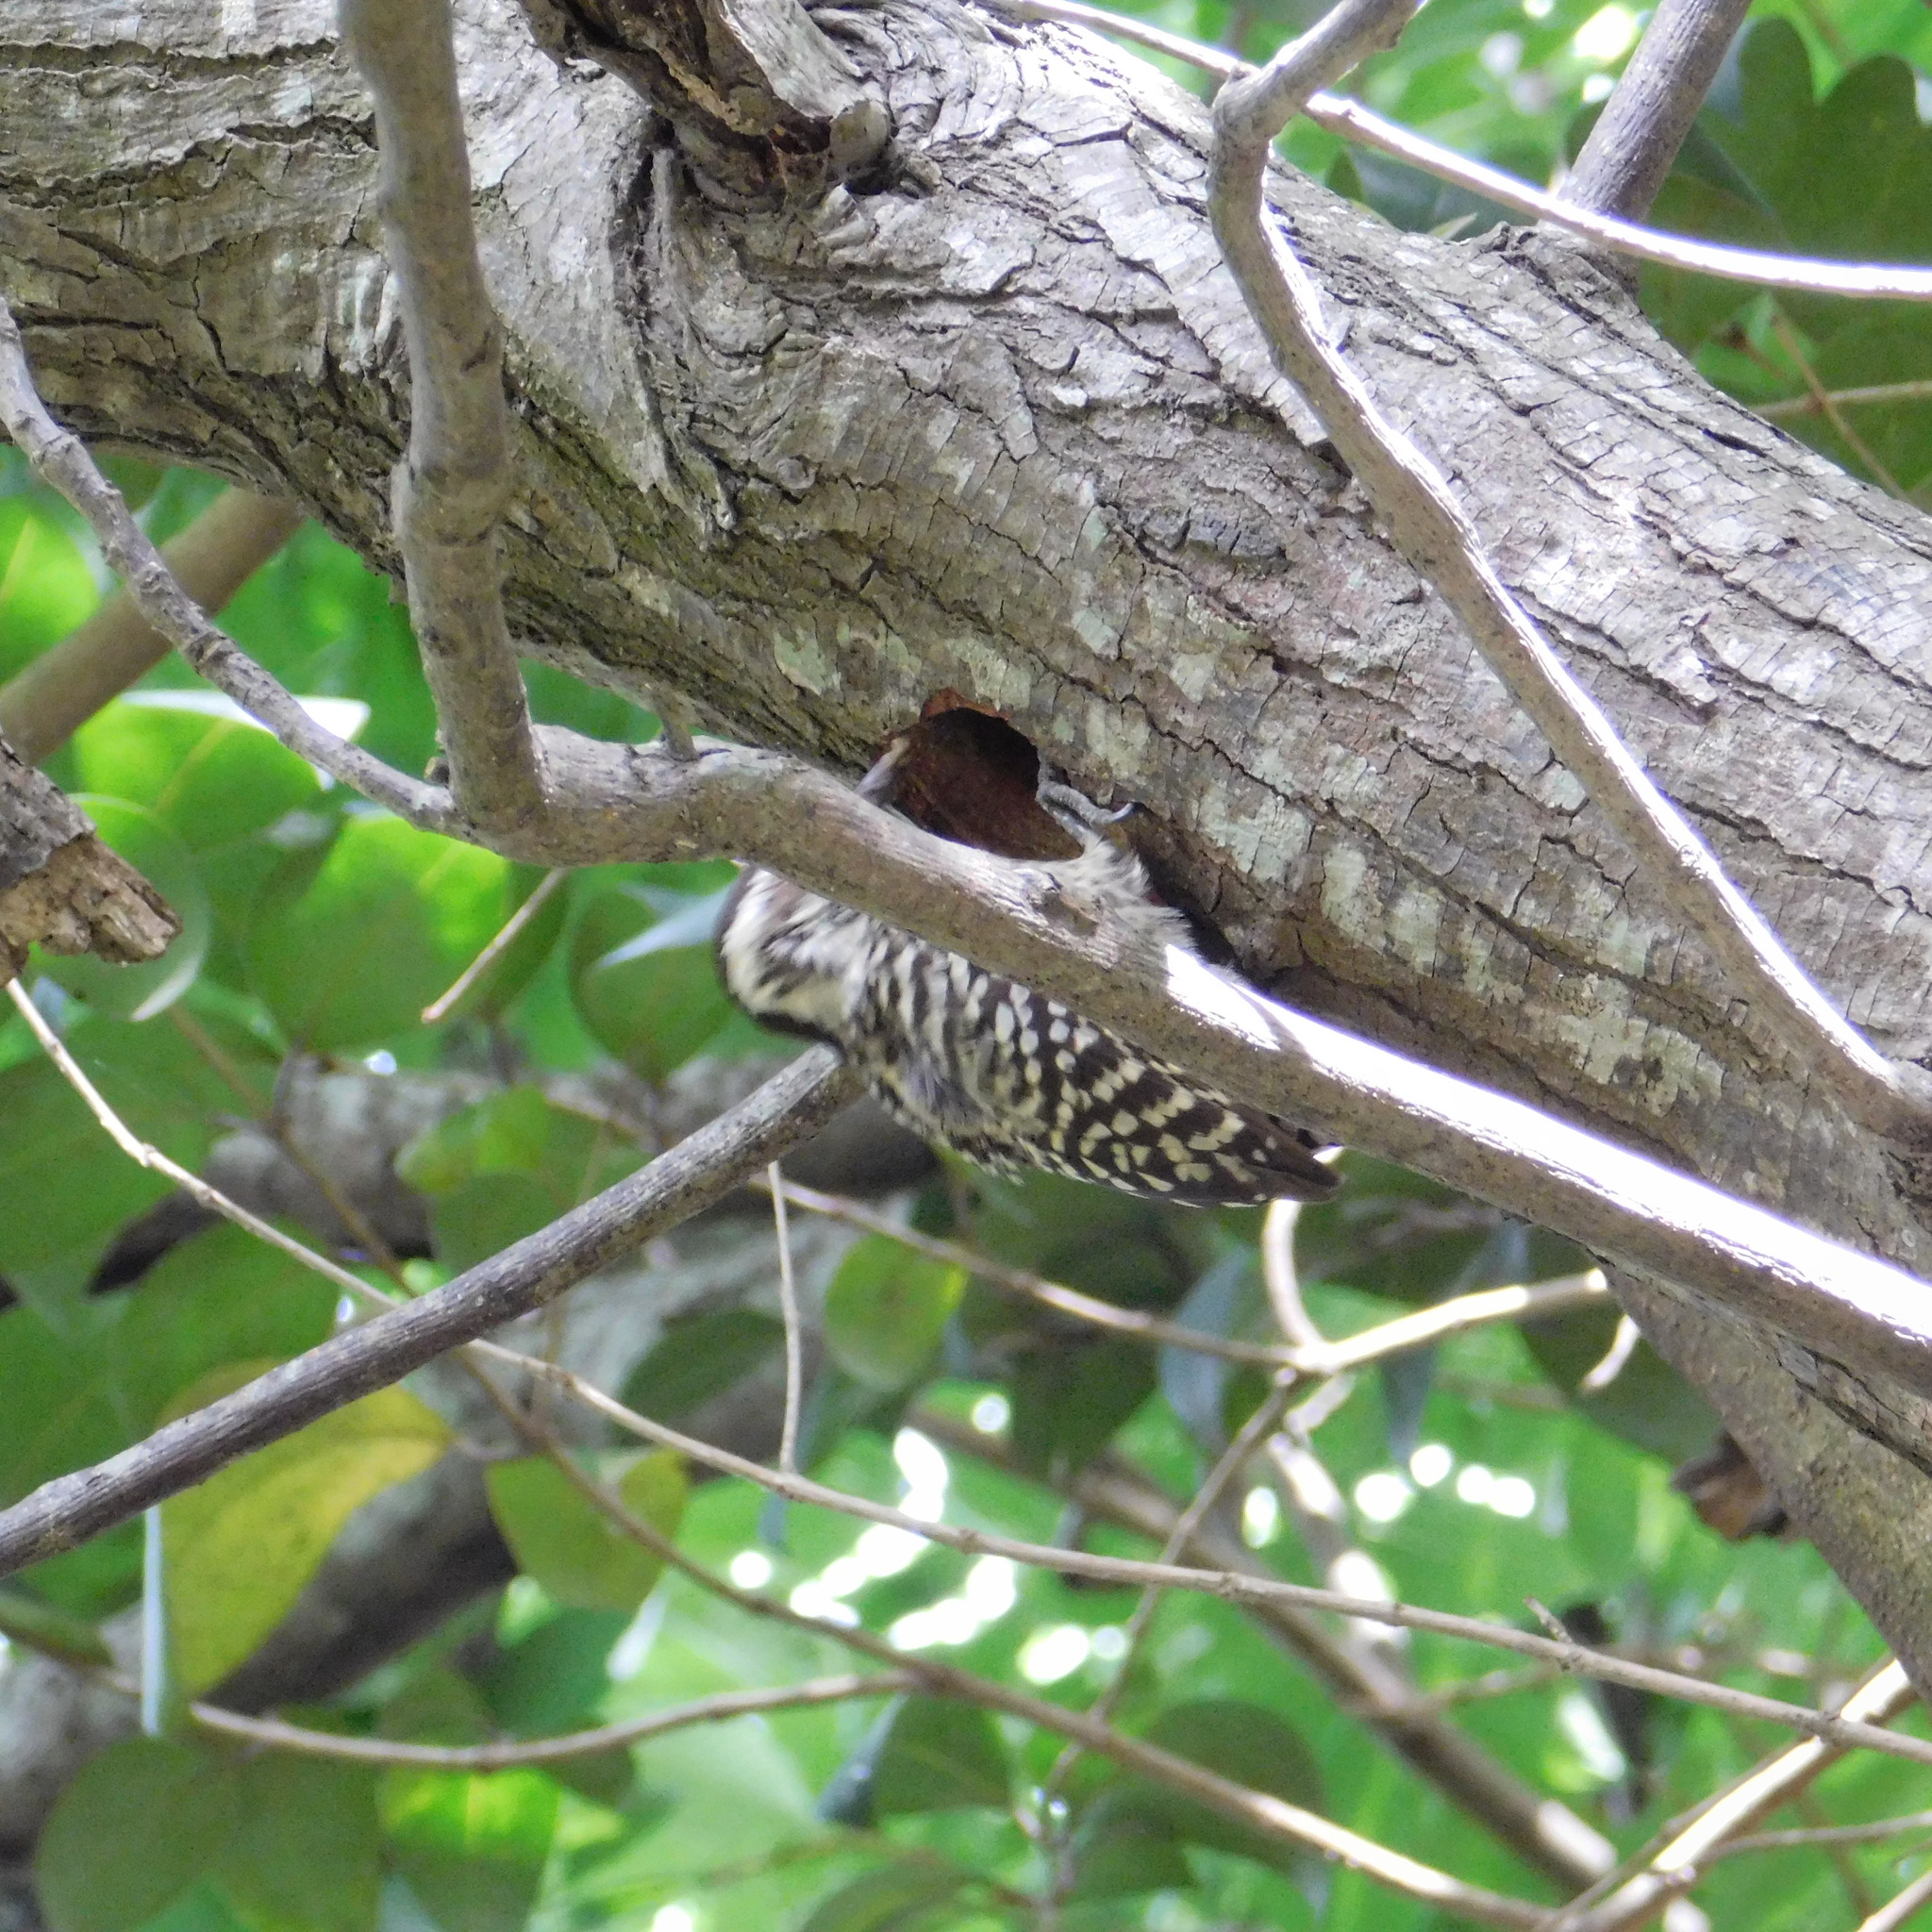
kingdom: Animalia
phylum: Chordata
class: Aves
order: Piciformes
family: Picidae
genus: Veniliornis
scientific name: Veniliornis mixtus
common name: Checkered woodpecker
